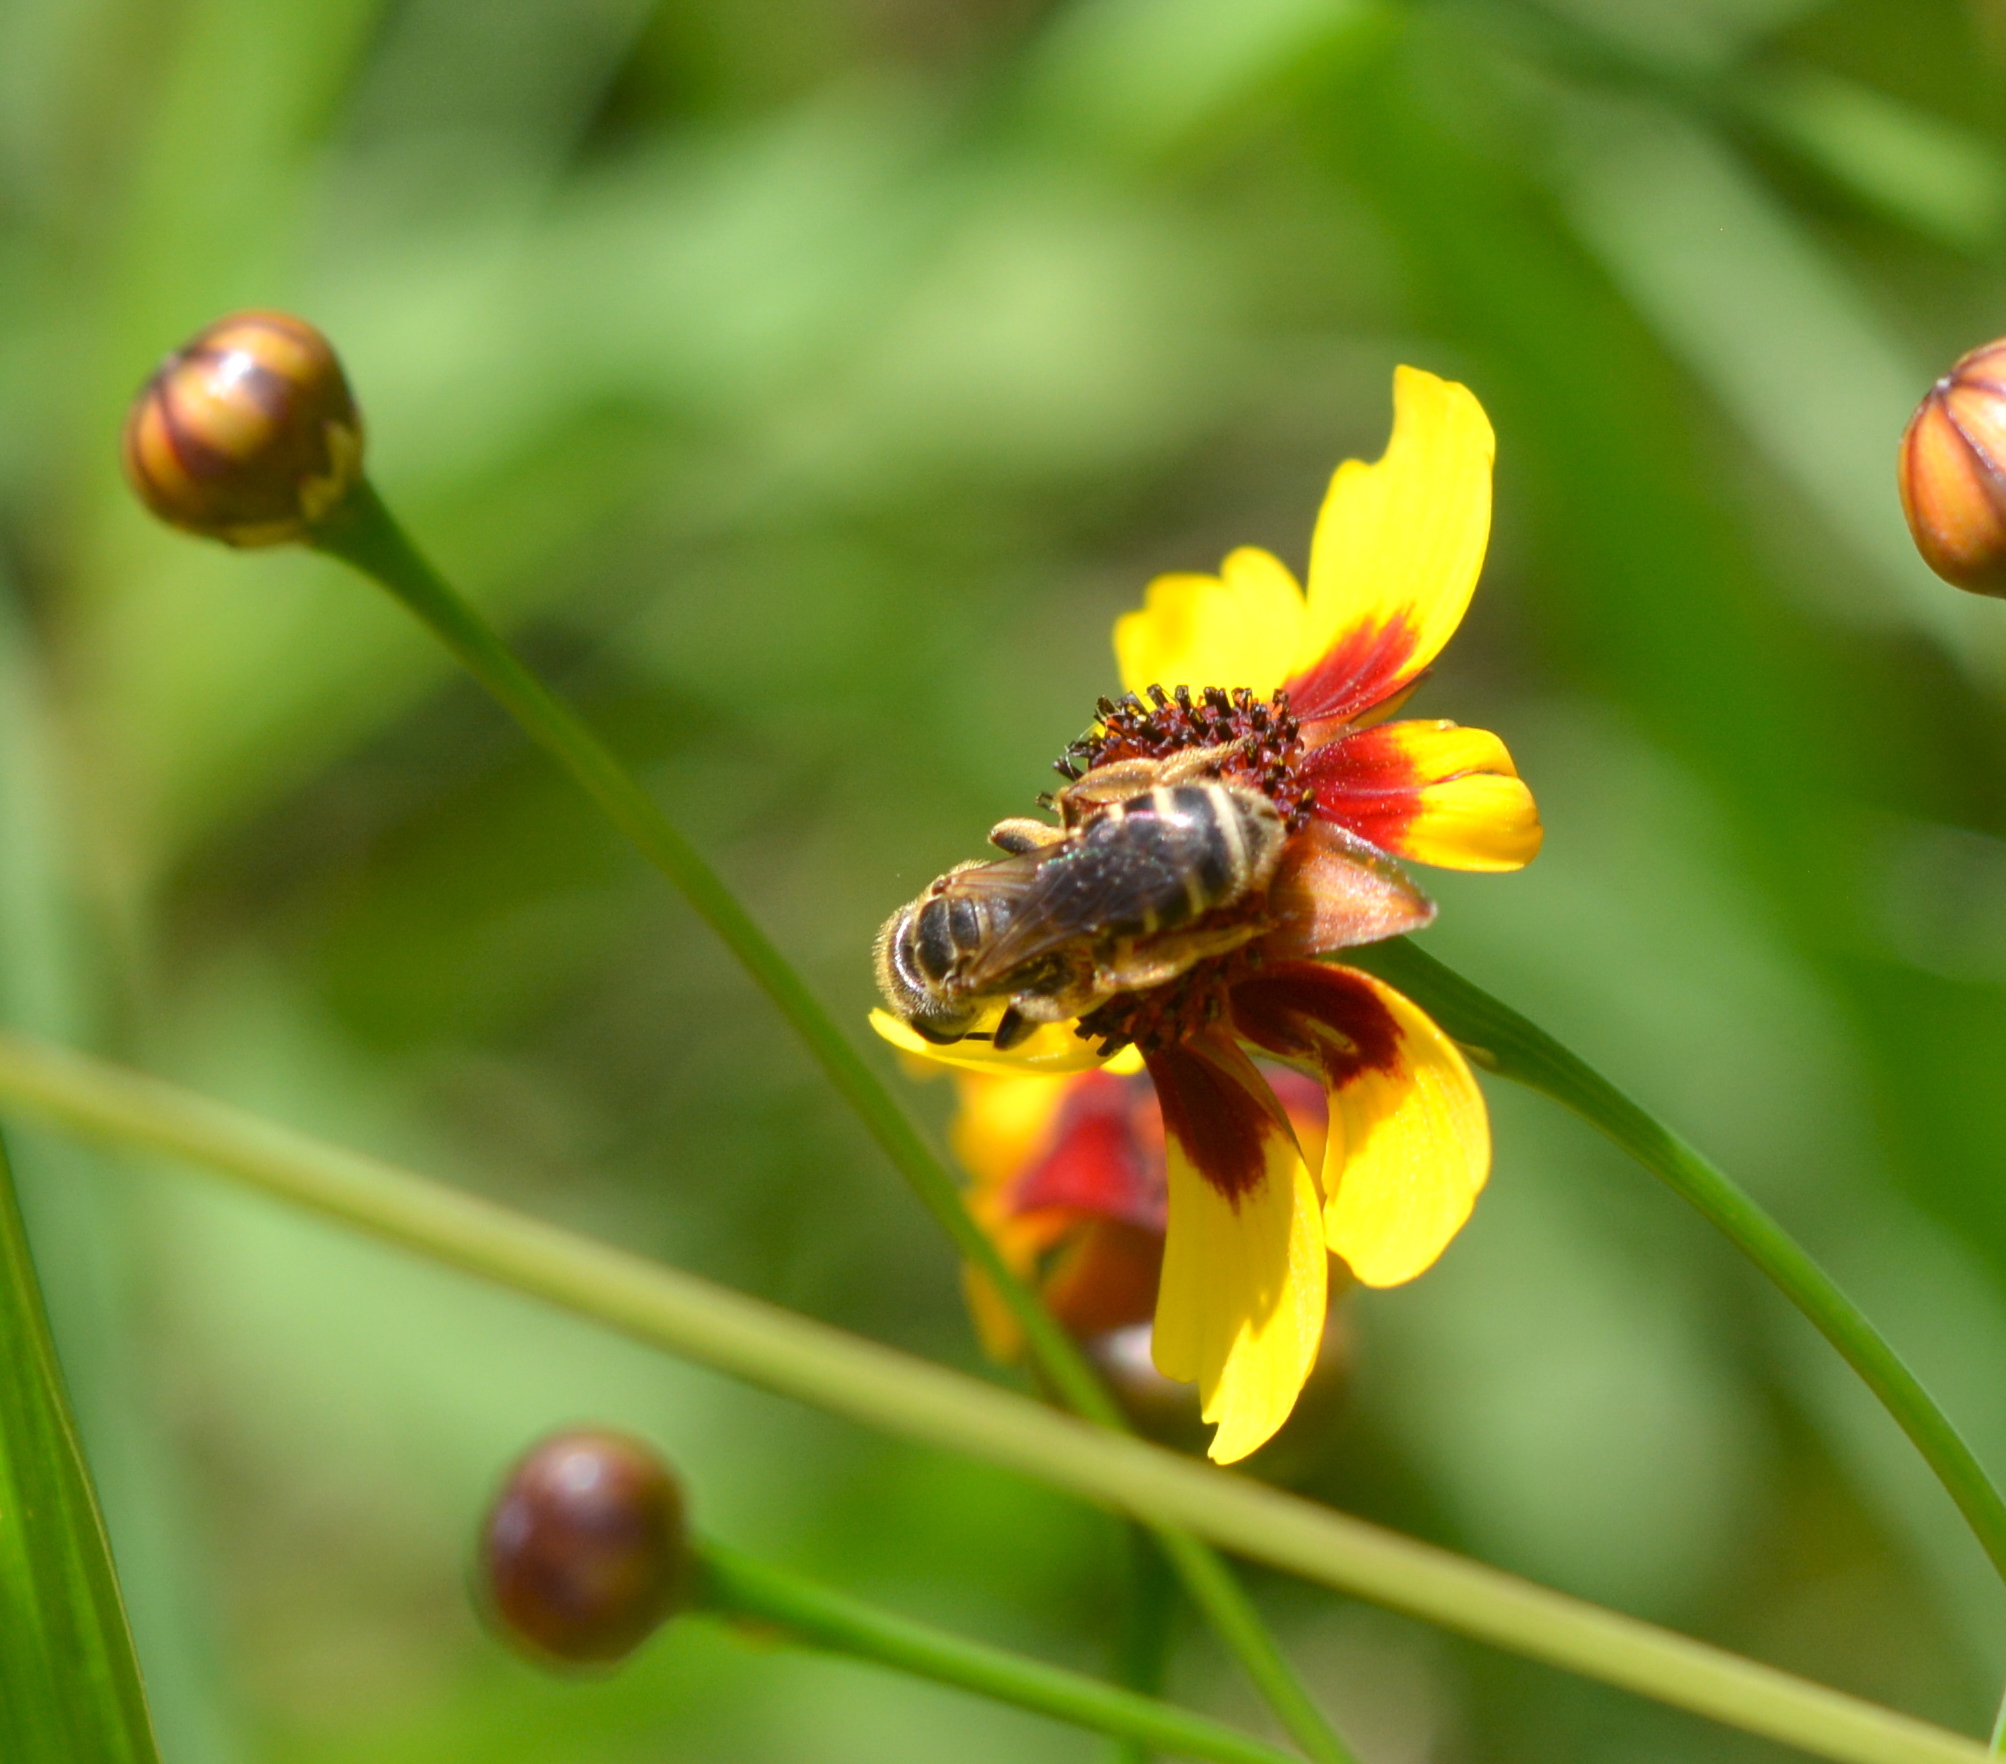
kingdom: Animalia
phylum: Arthropoda
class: Insecta
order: Hymenoptera
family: Halictidae
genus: Halictus
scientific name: Halictus poeyi
